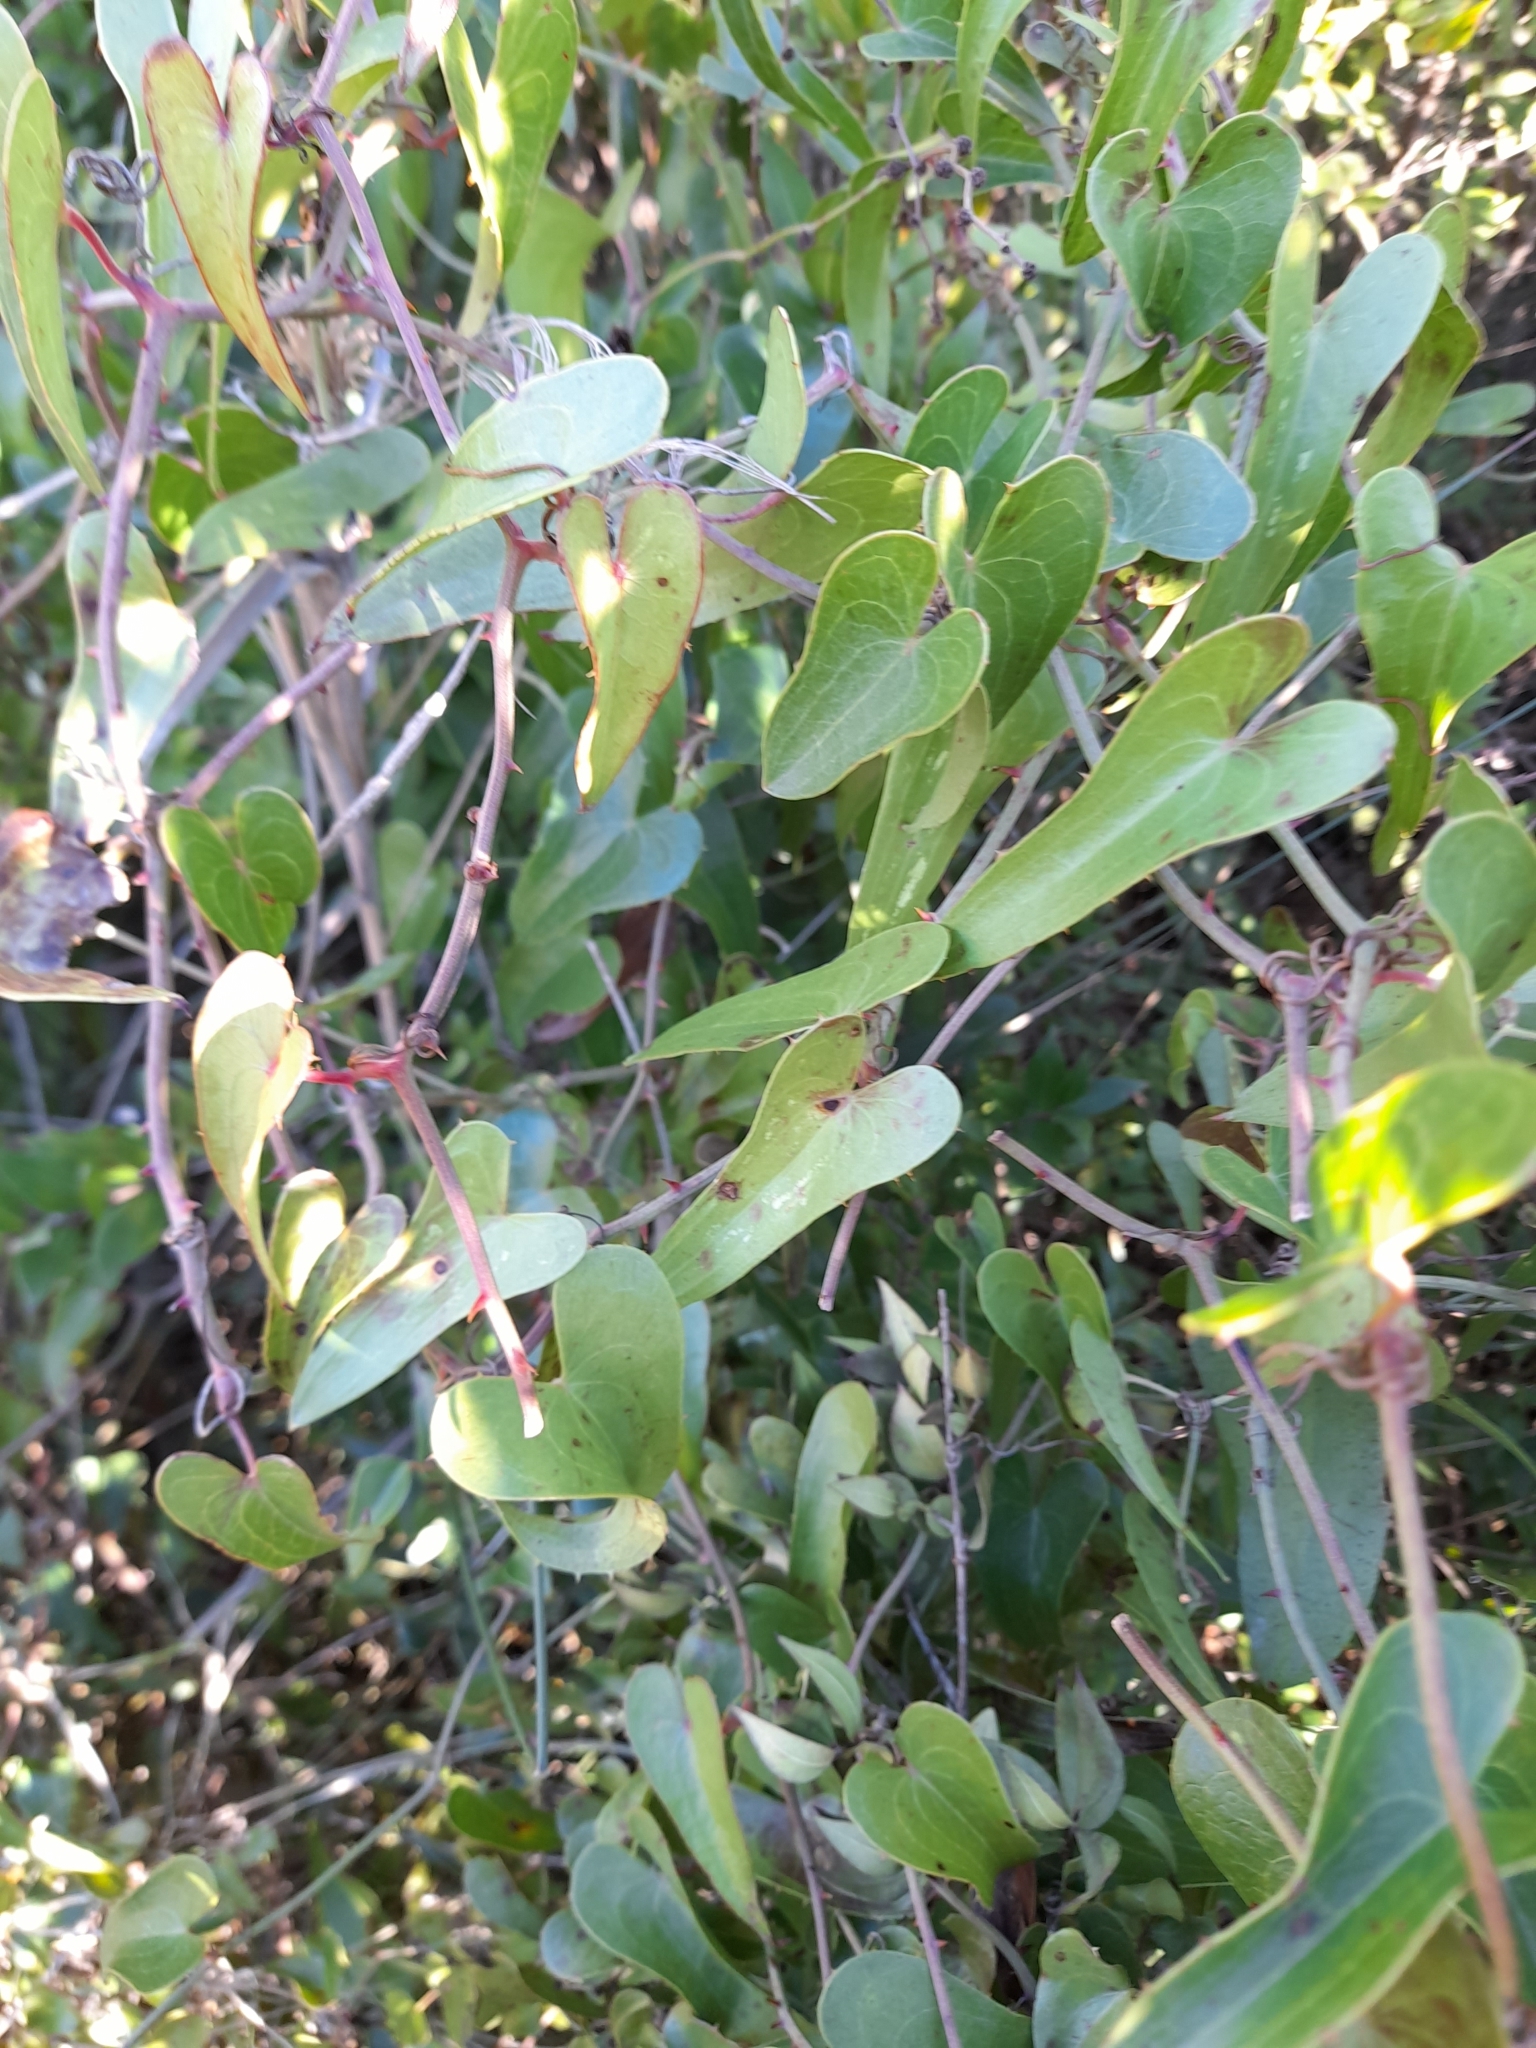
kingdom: Plantae
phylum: Tracheophyta
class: Liliopsida
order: Liliales
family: Smilacaceae
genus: Smilax
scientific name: Smilax aspera
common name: Common smilax
